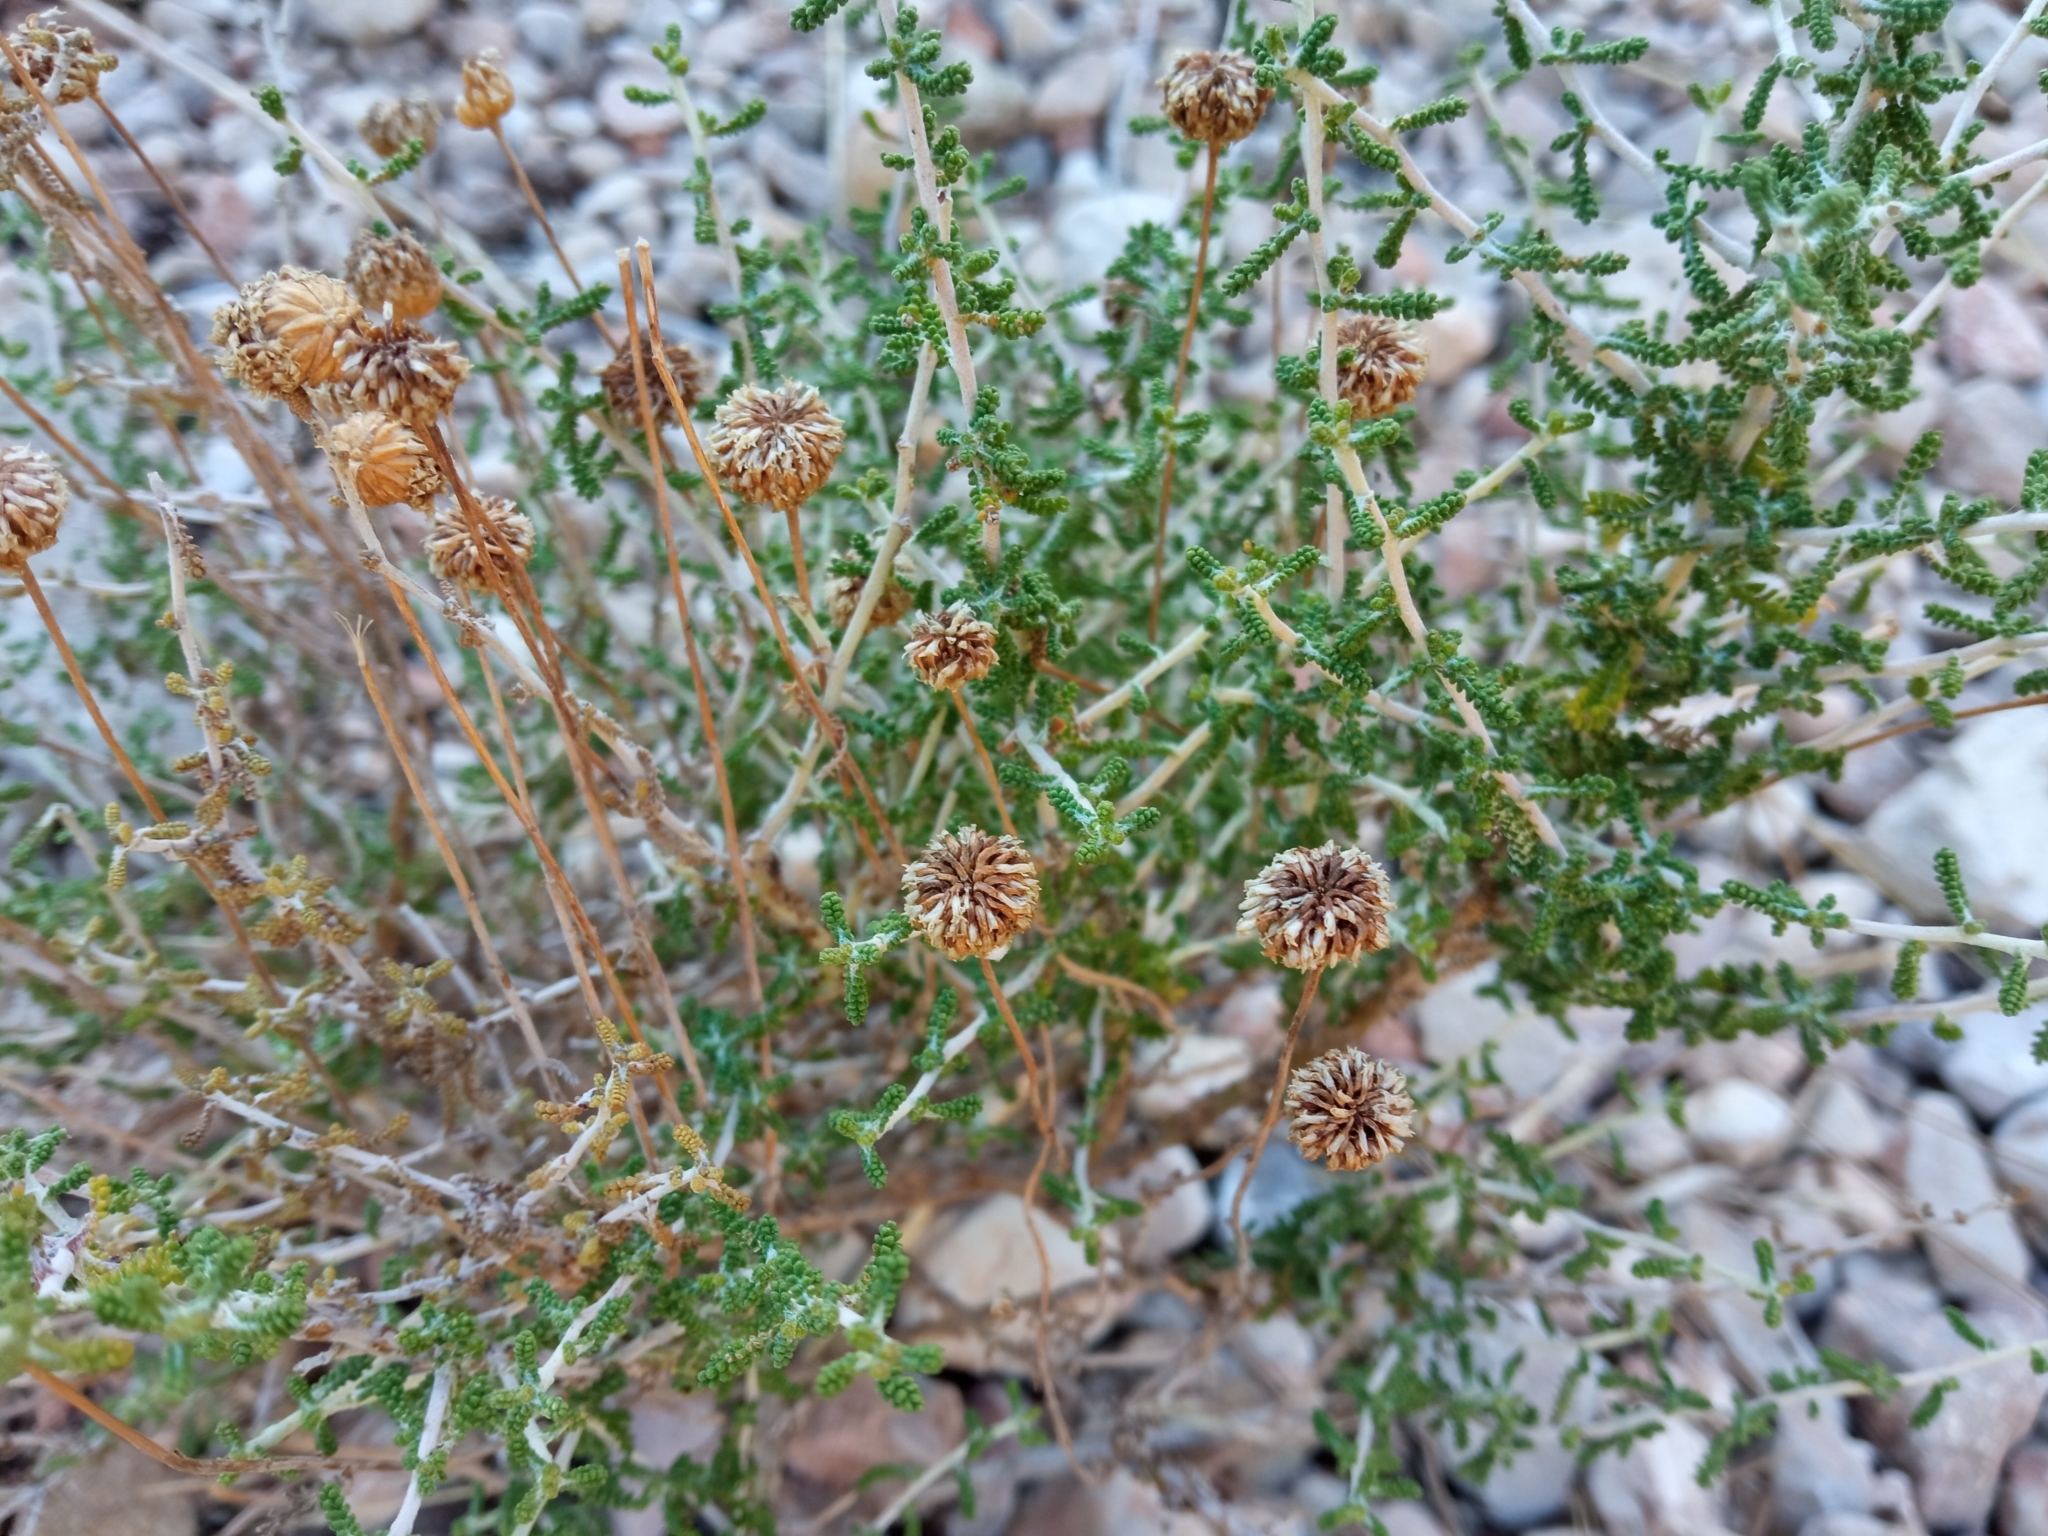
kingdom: Plantae
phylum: Tracheophyta
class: Magnoliopsida
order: Asterales
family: Asteraceae
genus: Santolina
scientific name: Santolina chamaecyparissus
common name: Lavender-cotton
